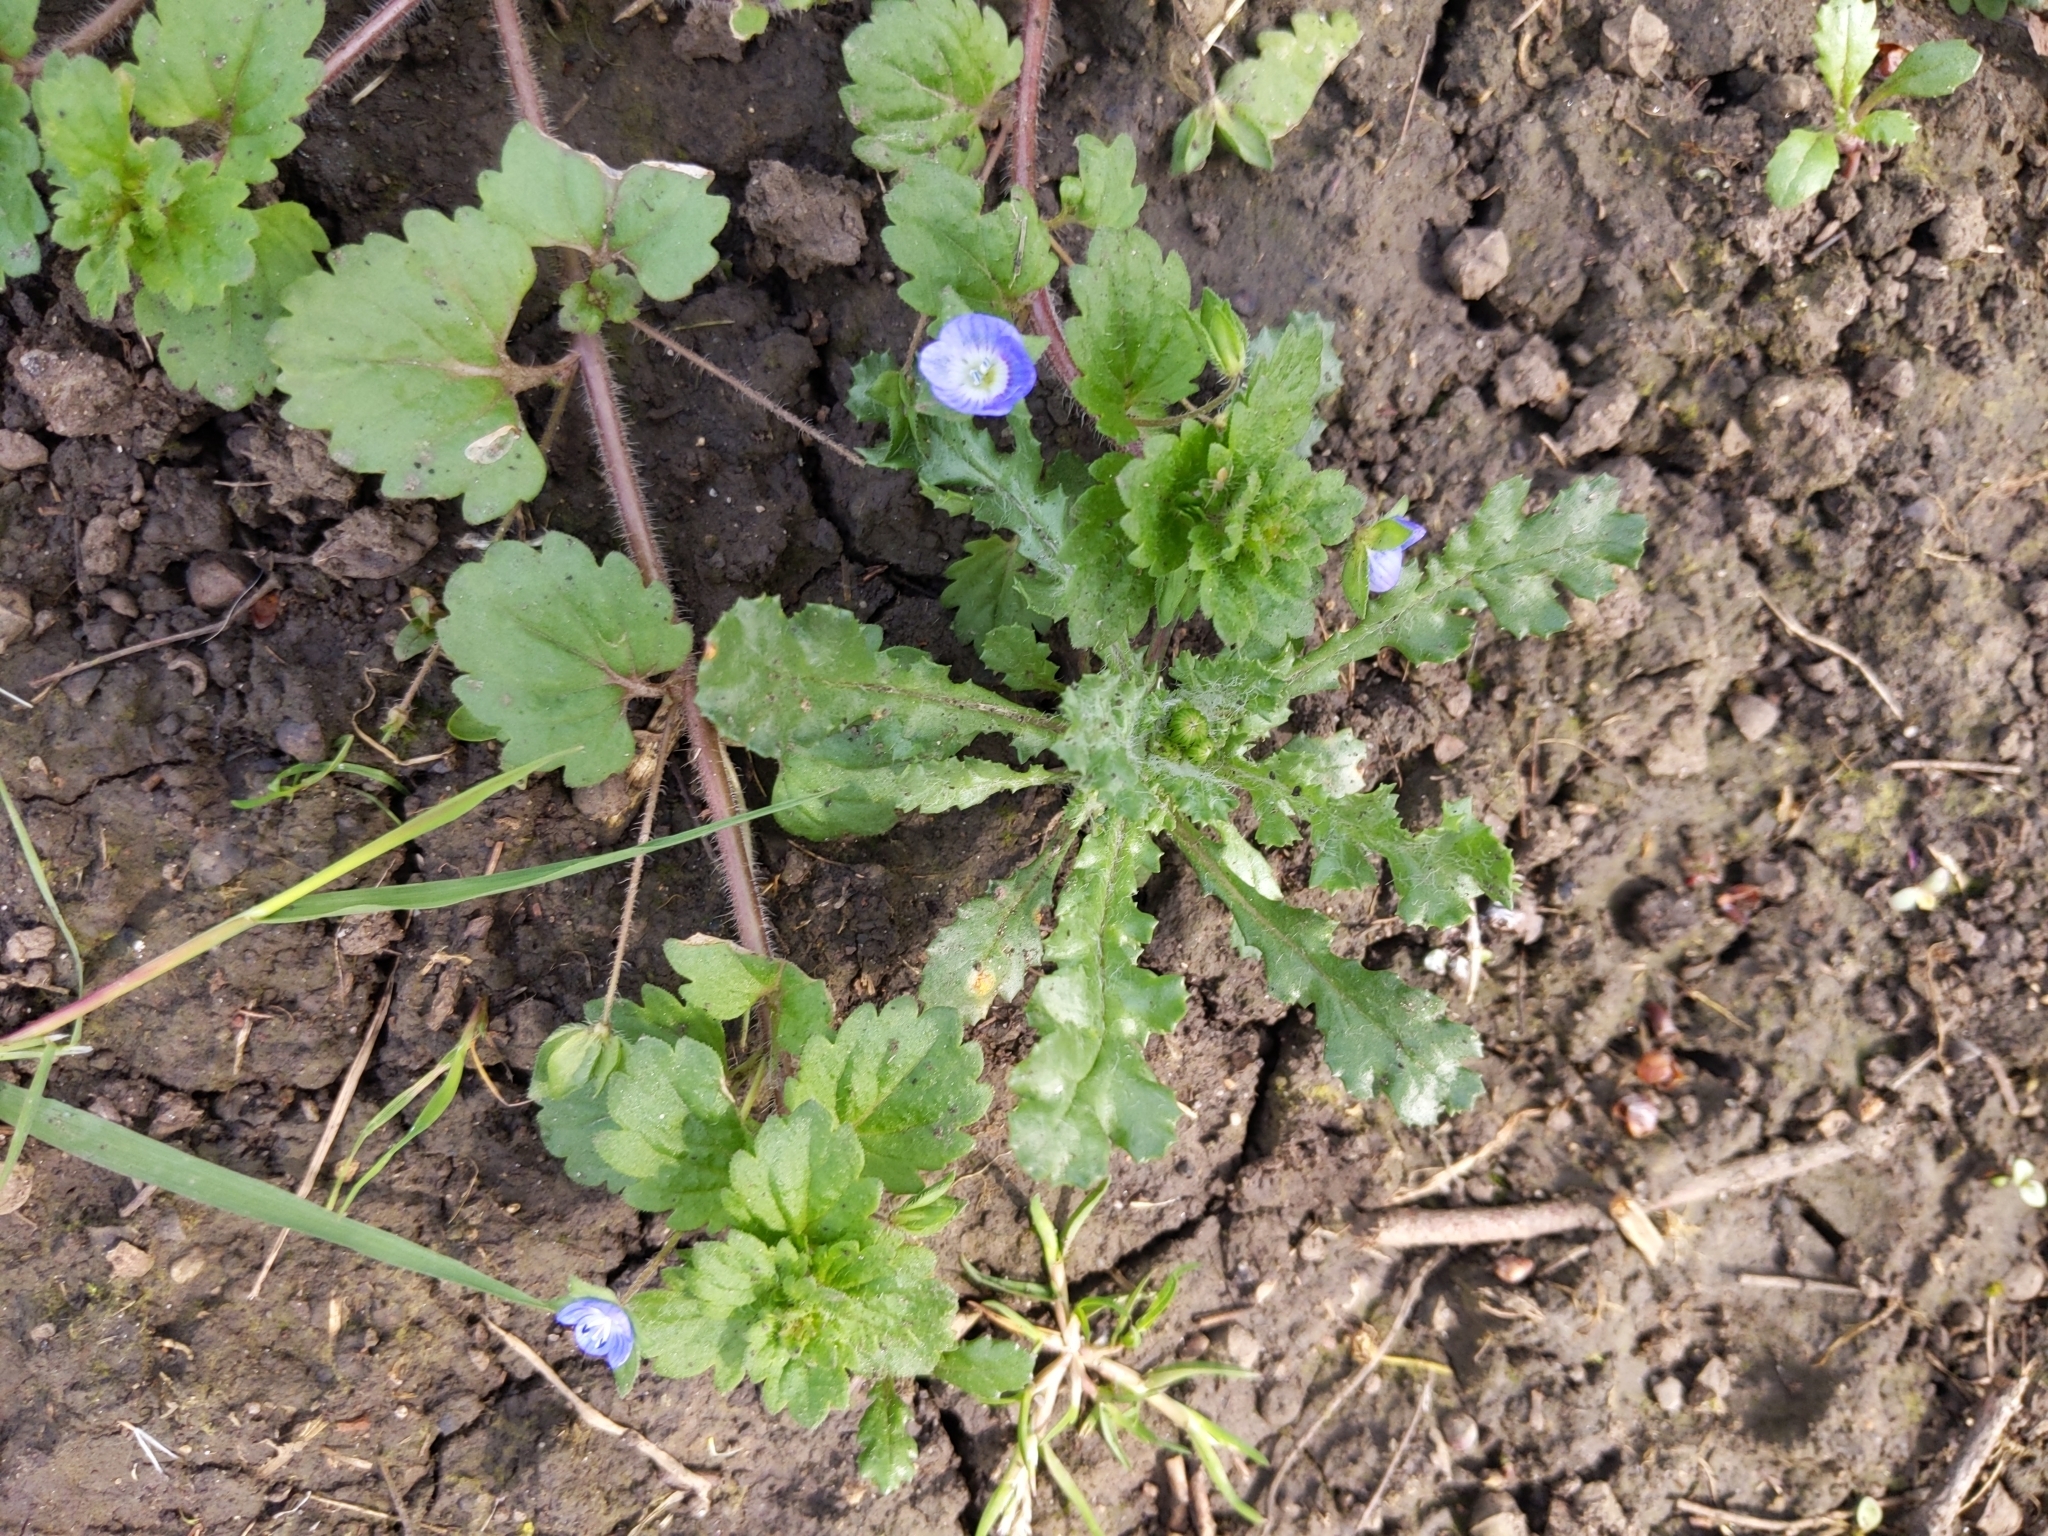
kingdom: Plantae
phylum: Tracheophyta
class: Magnoliopsida
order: Lamiales
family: Plantaginaceae
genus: Veronica
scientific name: Veronica persica
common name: Common field-speedwell
